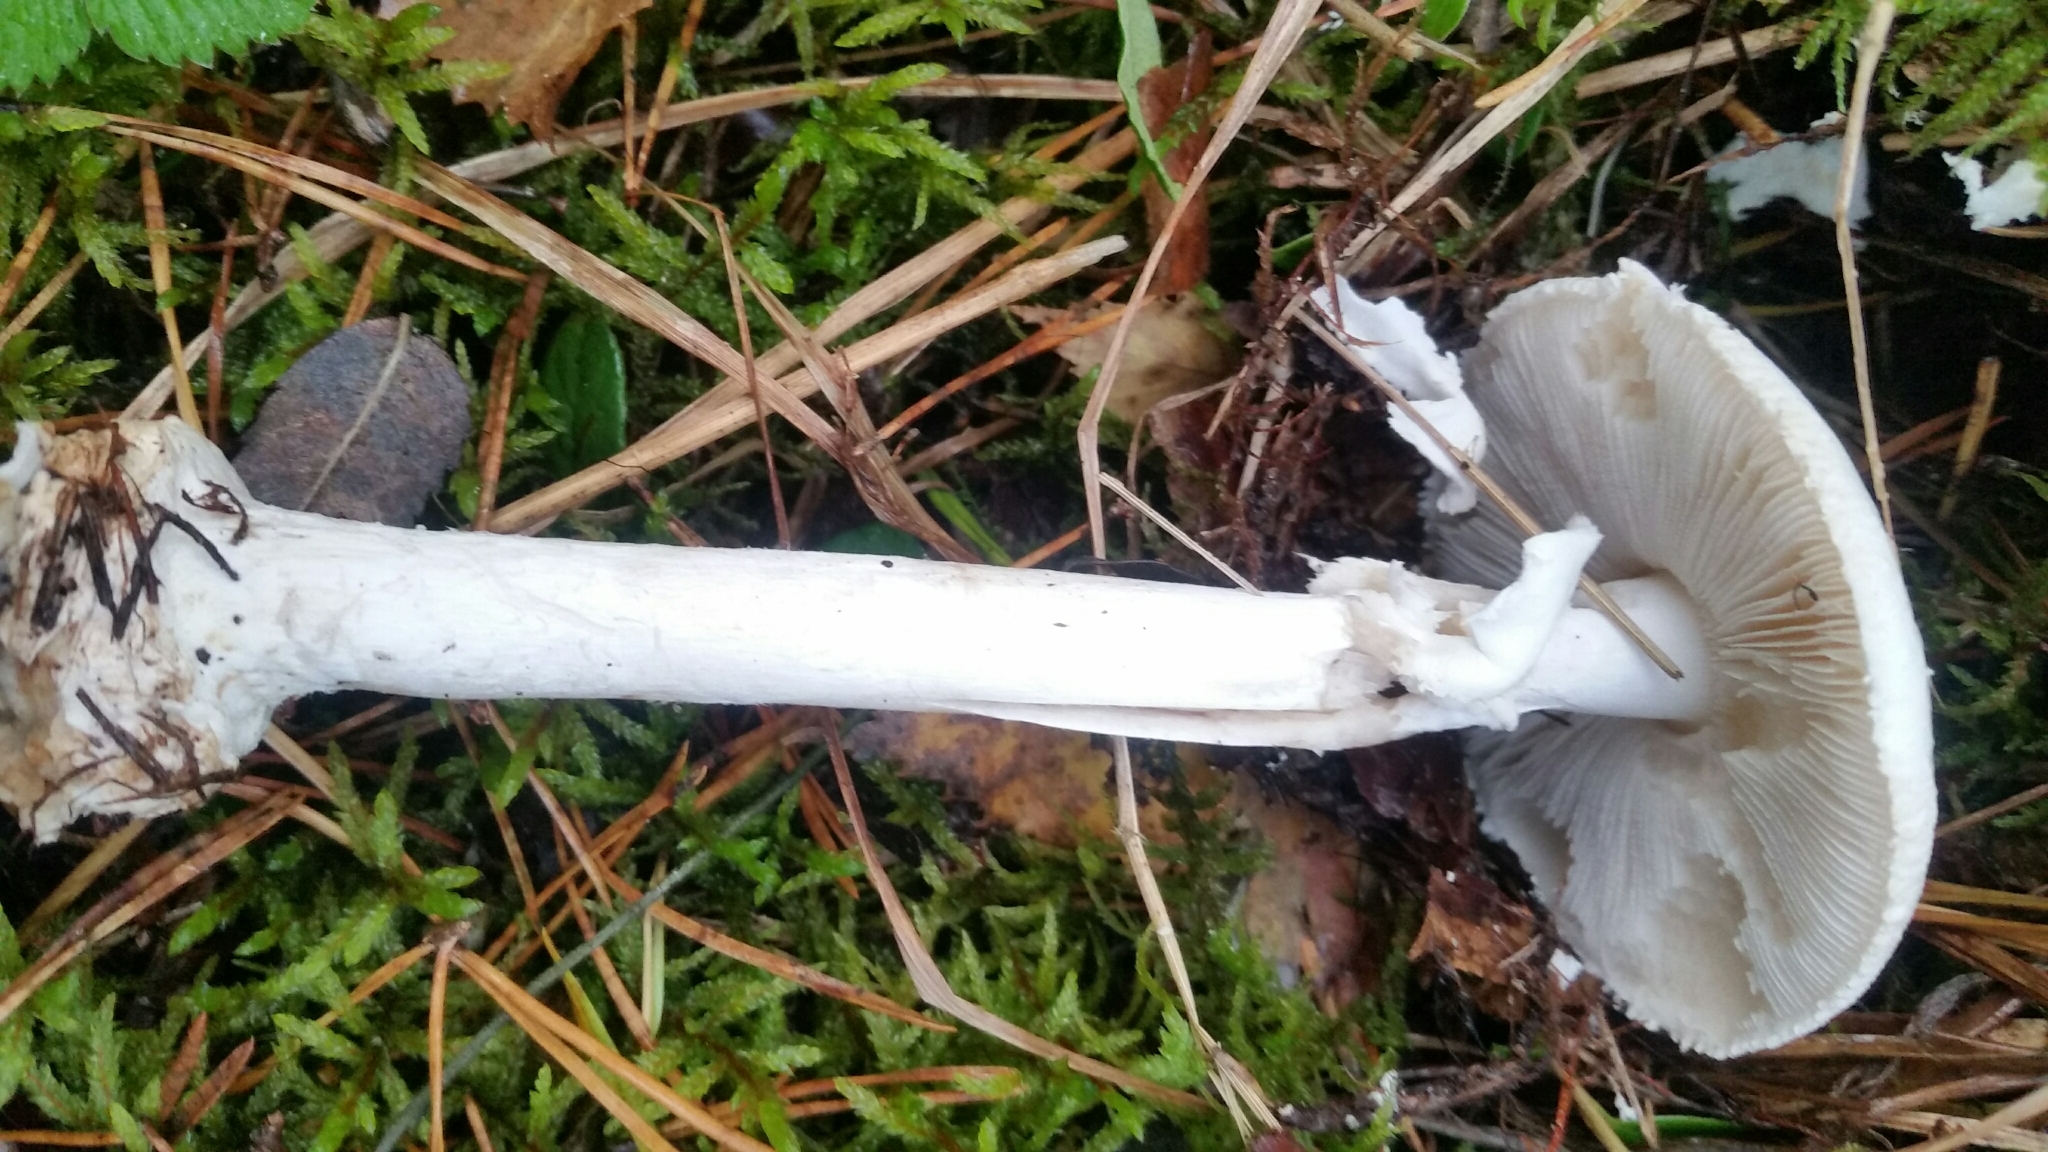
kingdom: Fungi
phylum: Basidiomycota
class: Agaricomycetes
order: Agaricales
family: Amanitaceae
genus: Amanita
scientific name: Amanita verna
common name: Fool's mushroom
